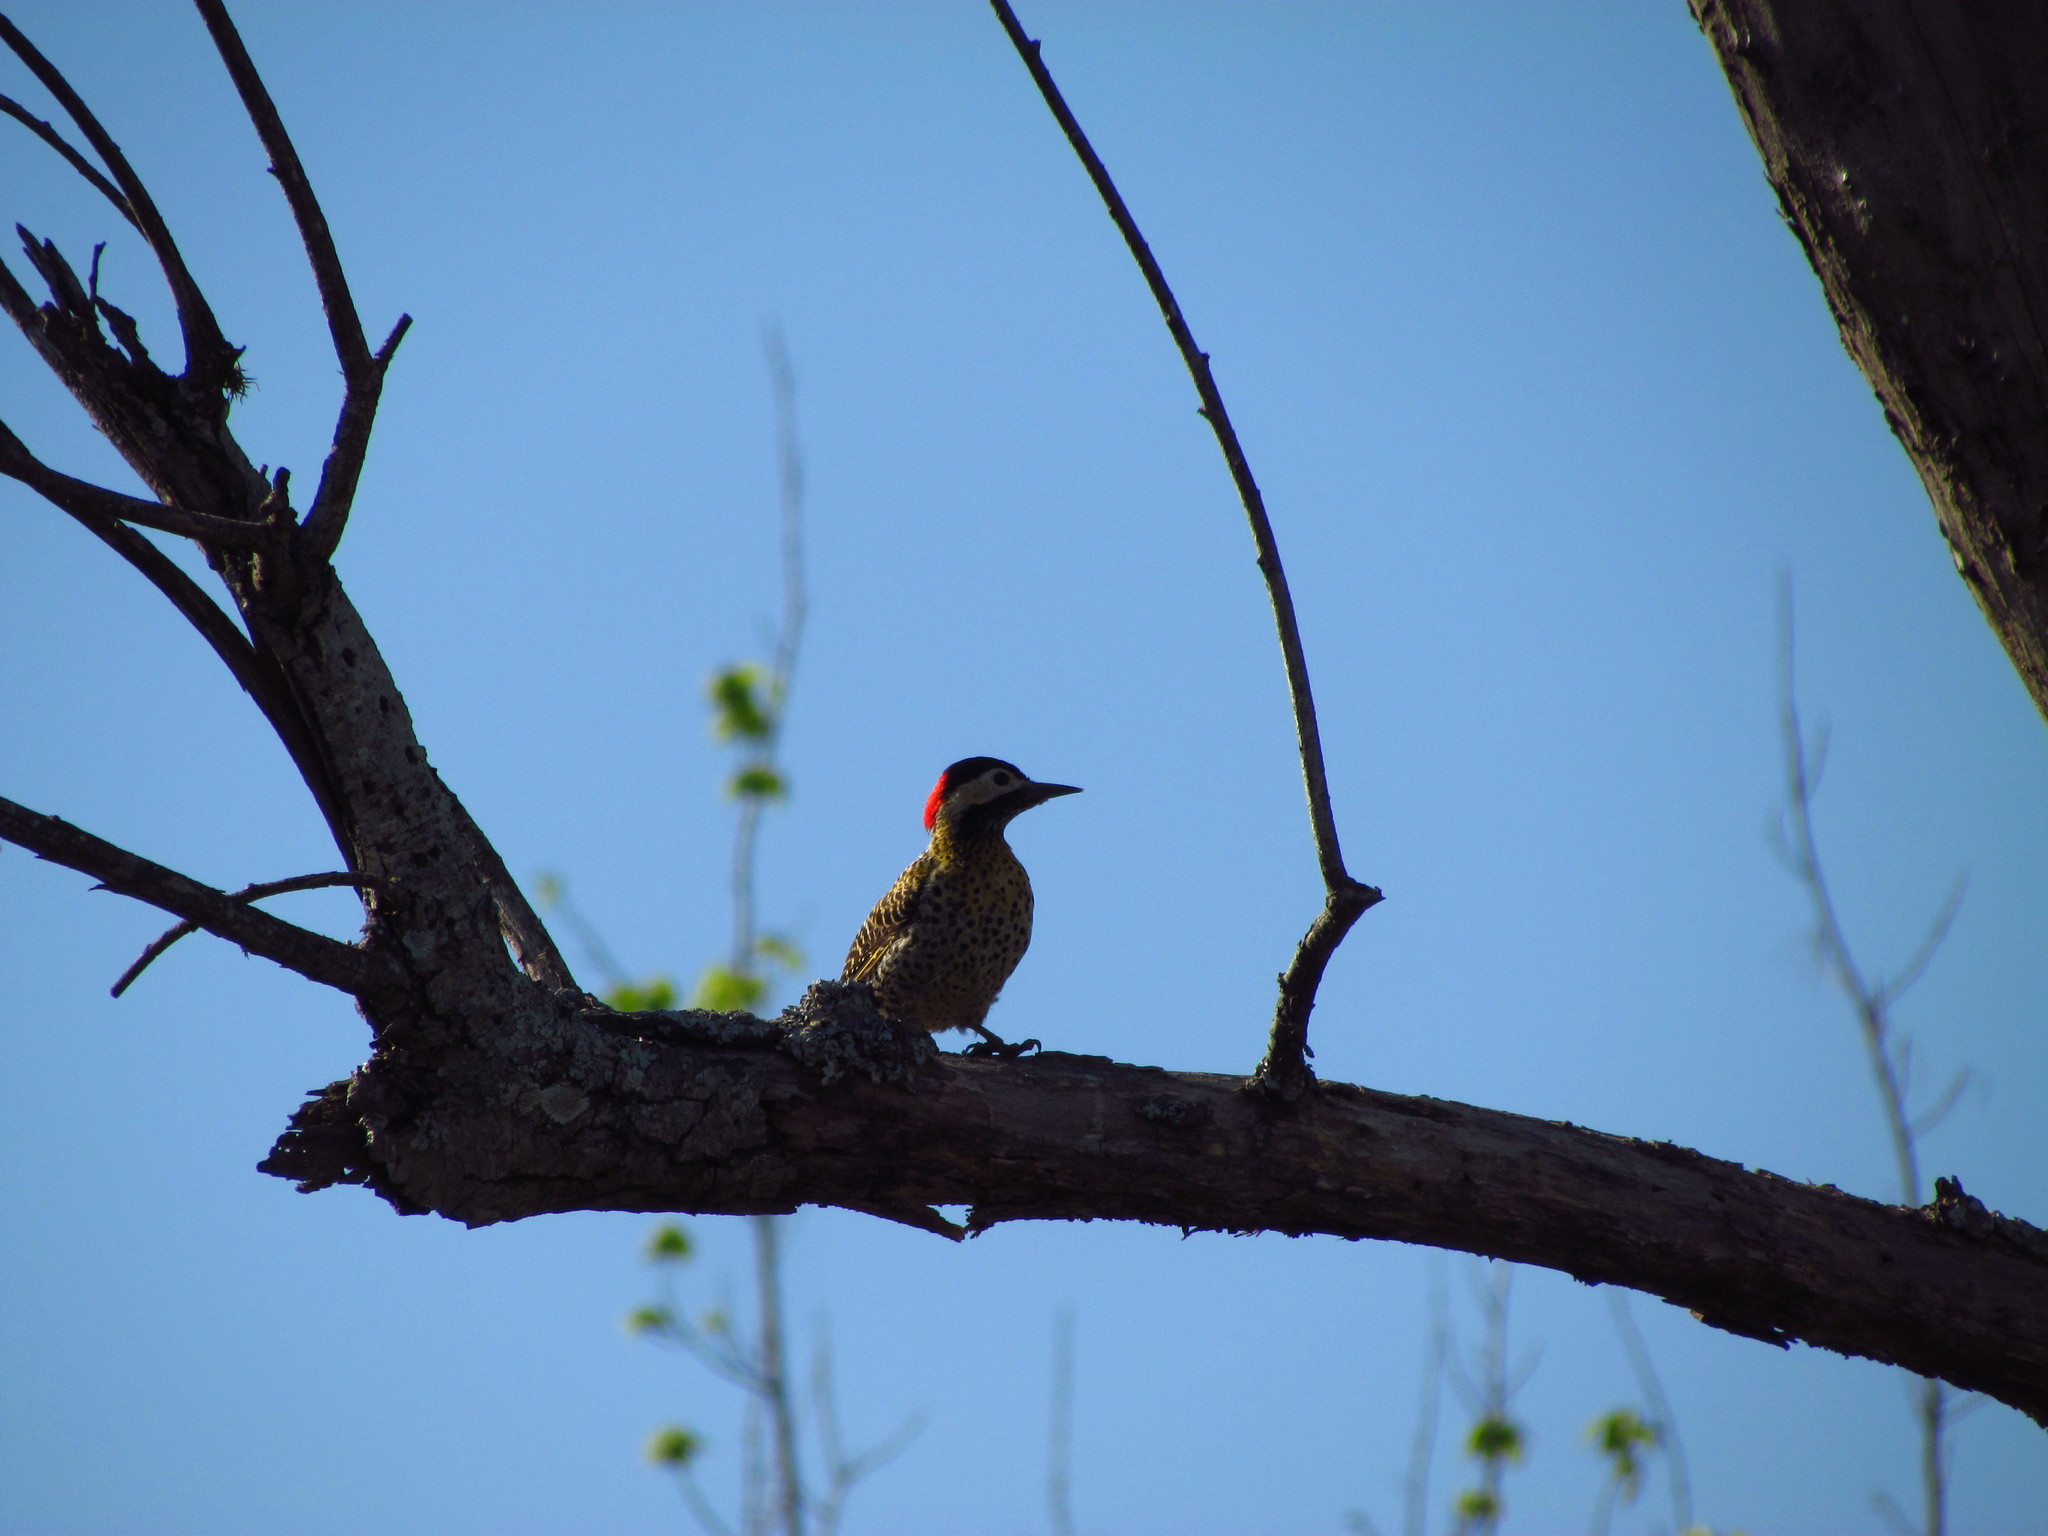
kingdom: Animalia
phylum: Chordata
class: Aves
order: Piciformes
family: Picidae
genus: Colaptes
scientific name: Colaptes melanochloros
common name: Green-barred woodpecker
